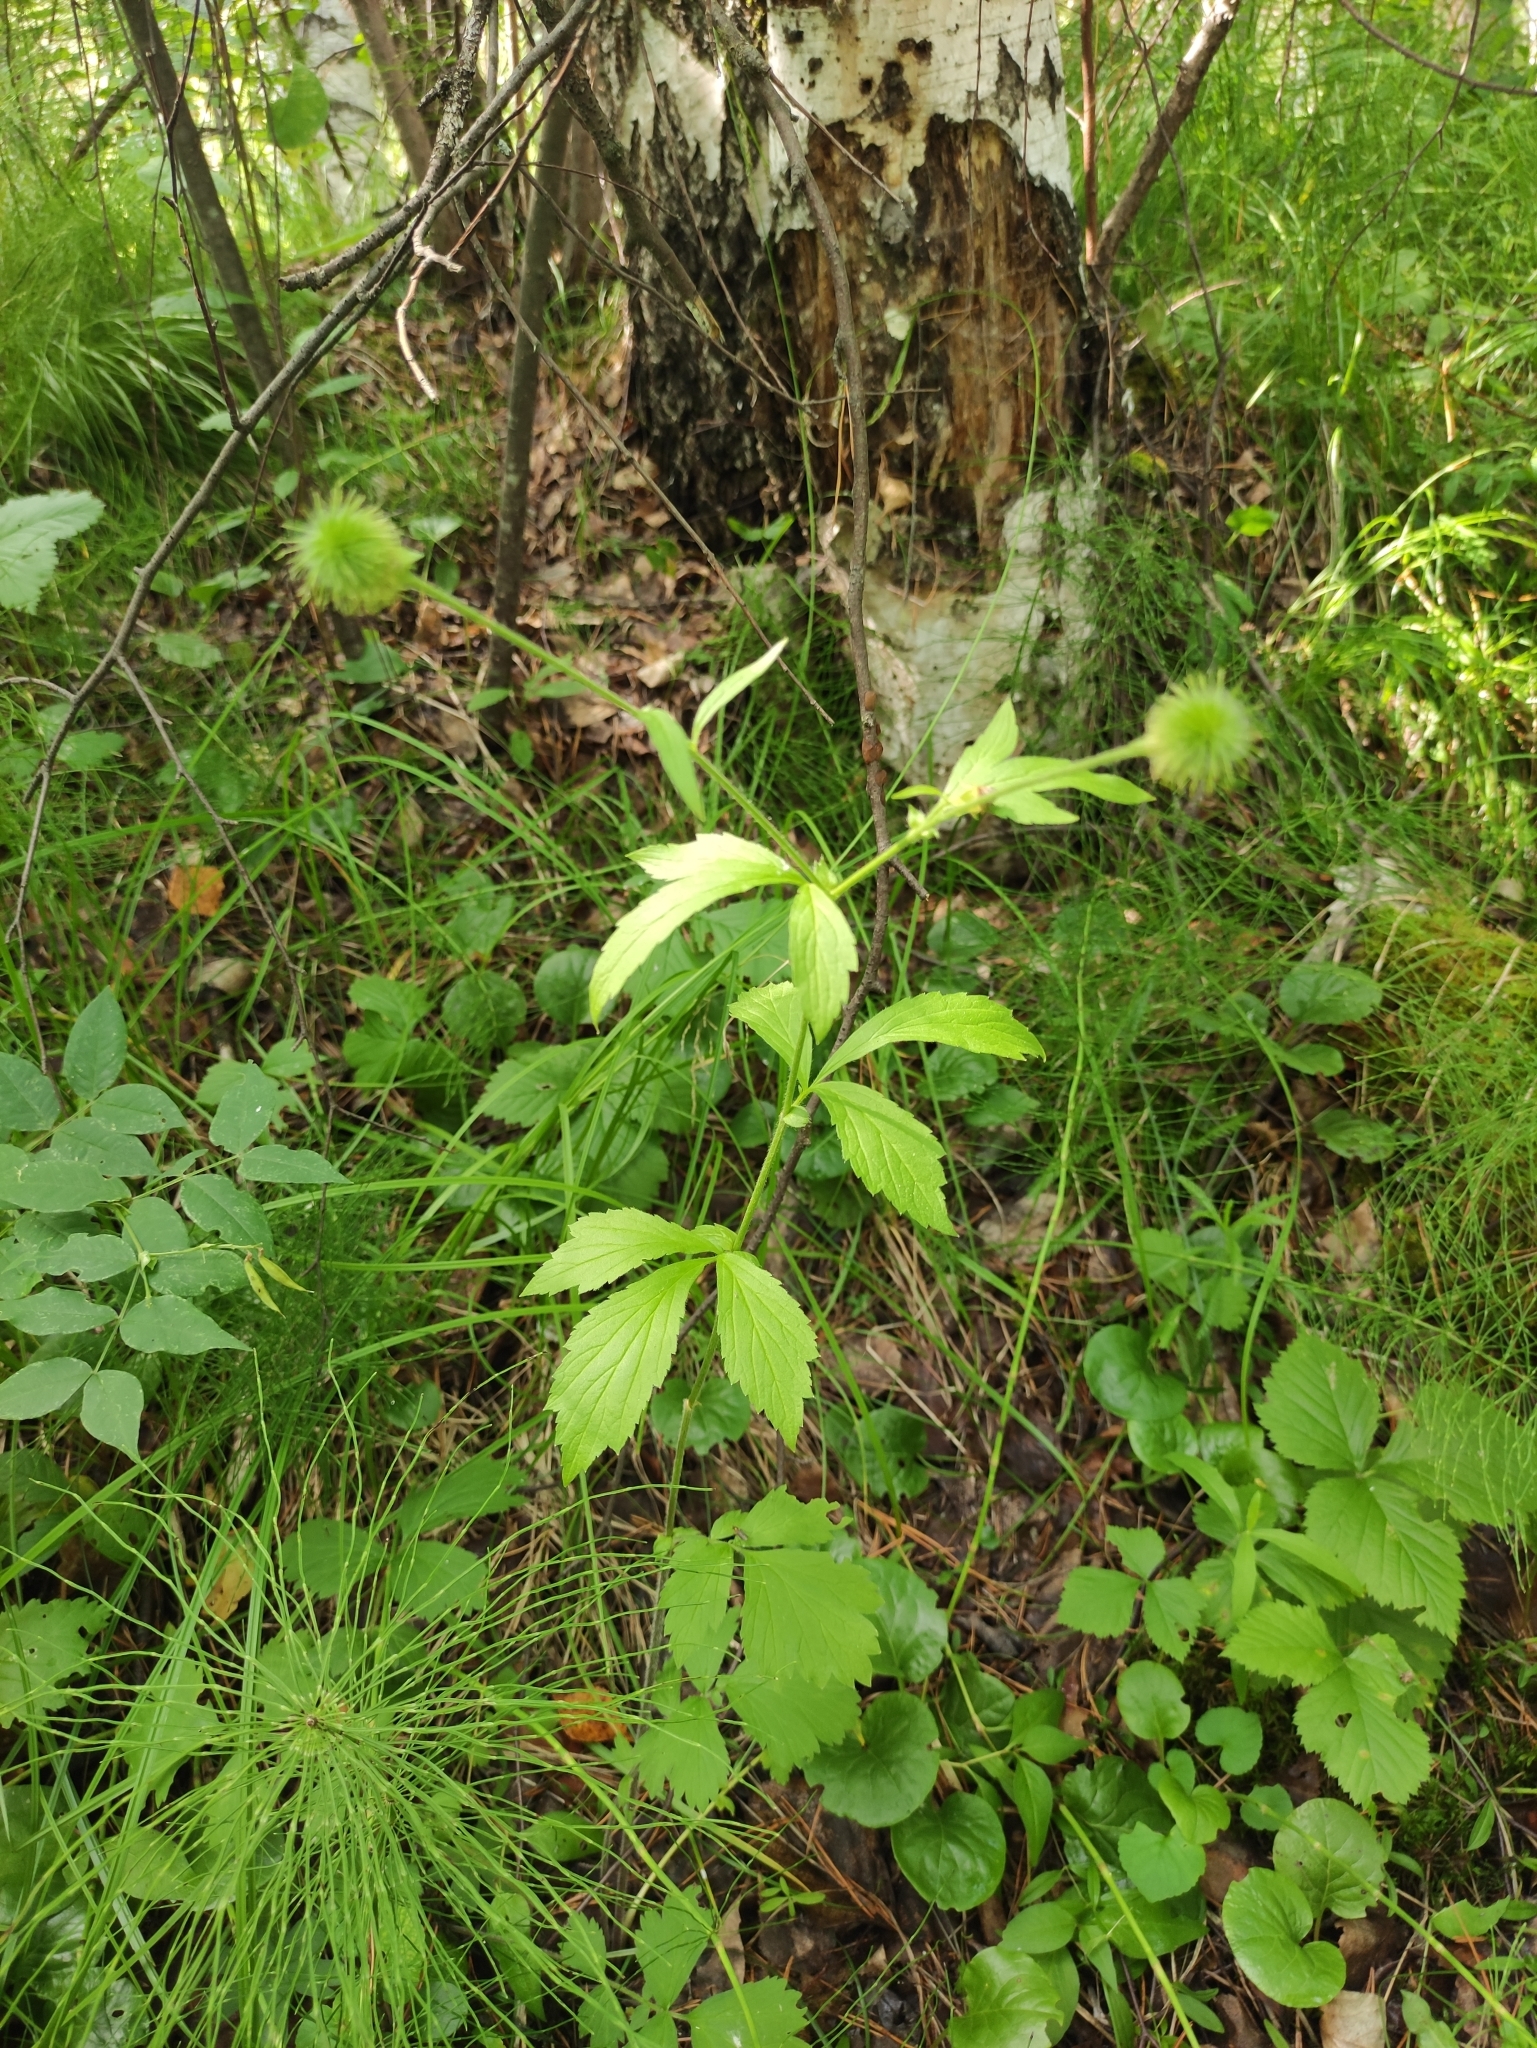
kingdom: Plantae
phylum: Tracheophyta
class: Magnoliopsida
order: Rosales
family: Rosaceae
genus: Geum
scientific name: Geum aleppicum
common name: Yellow avens
